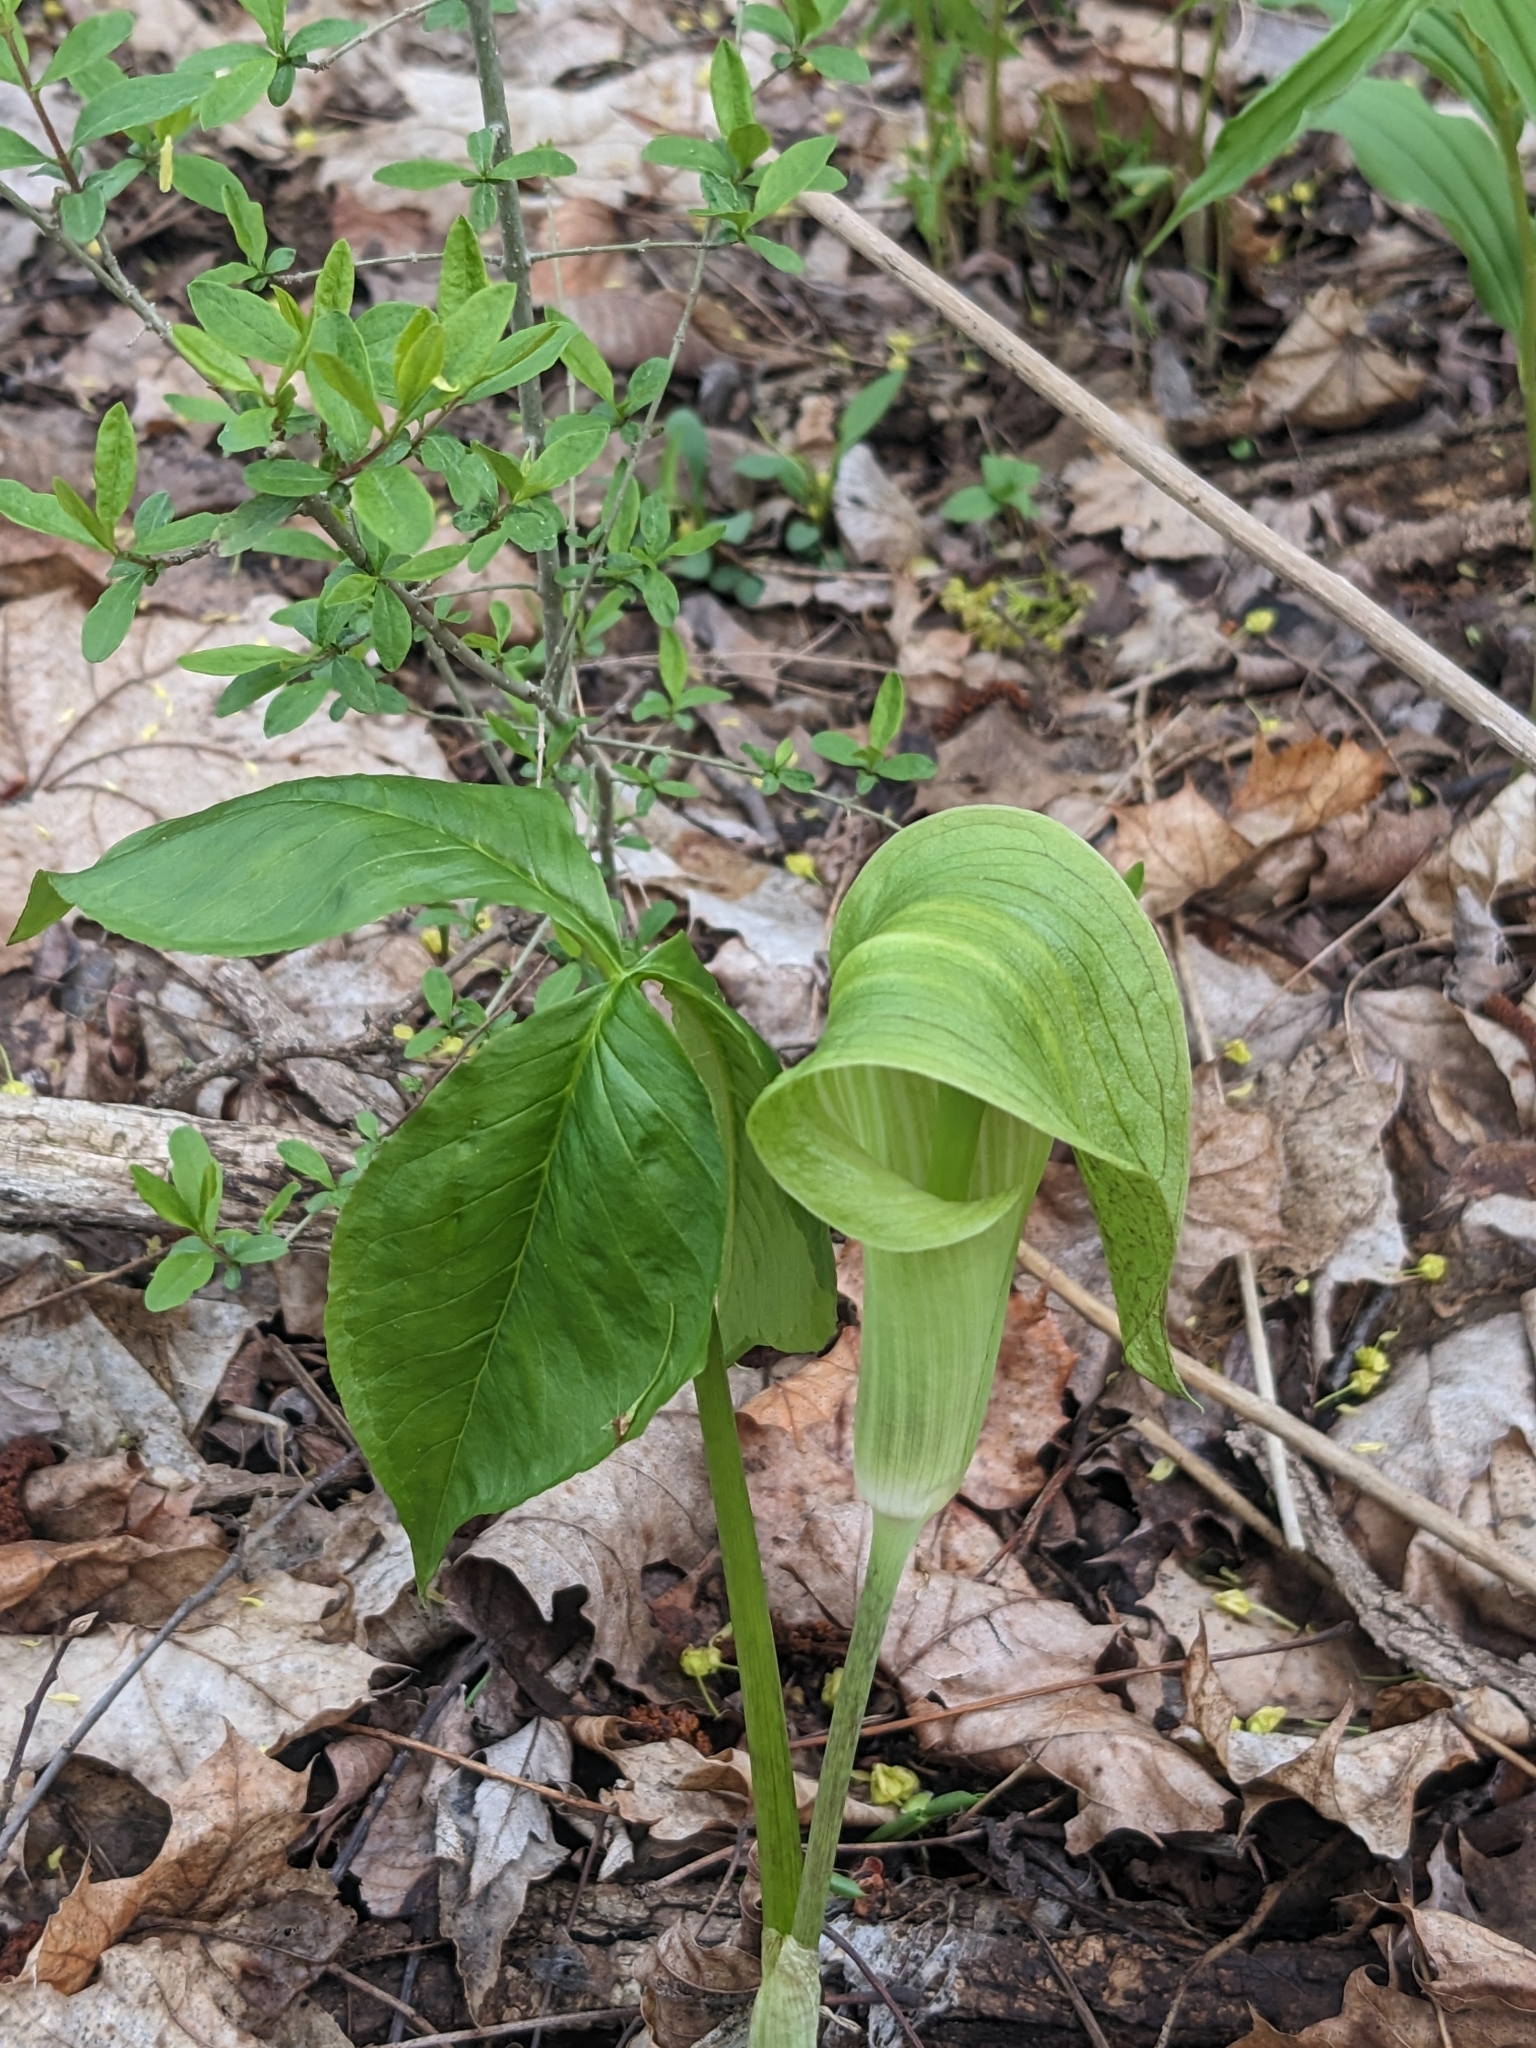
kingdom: Plantae
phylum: Tracheophyta
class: Liliopsida
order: Alismatales
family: Araceae
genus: Arisaema
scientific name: Arisaema triphyllum
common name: Jack-in-the-pulpit
